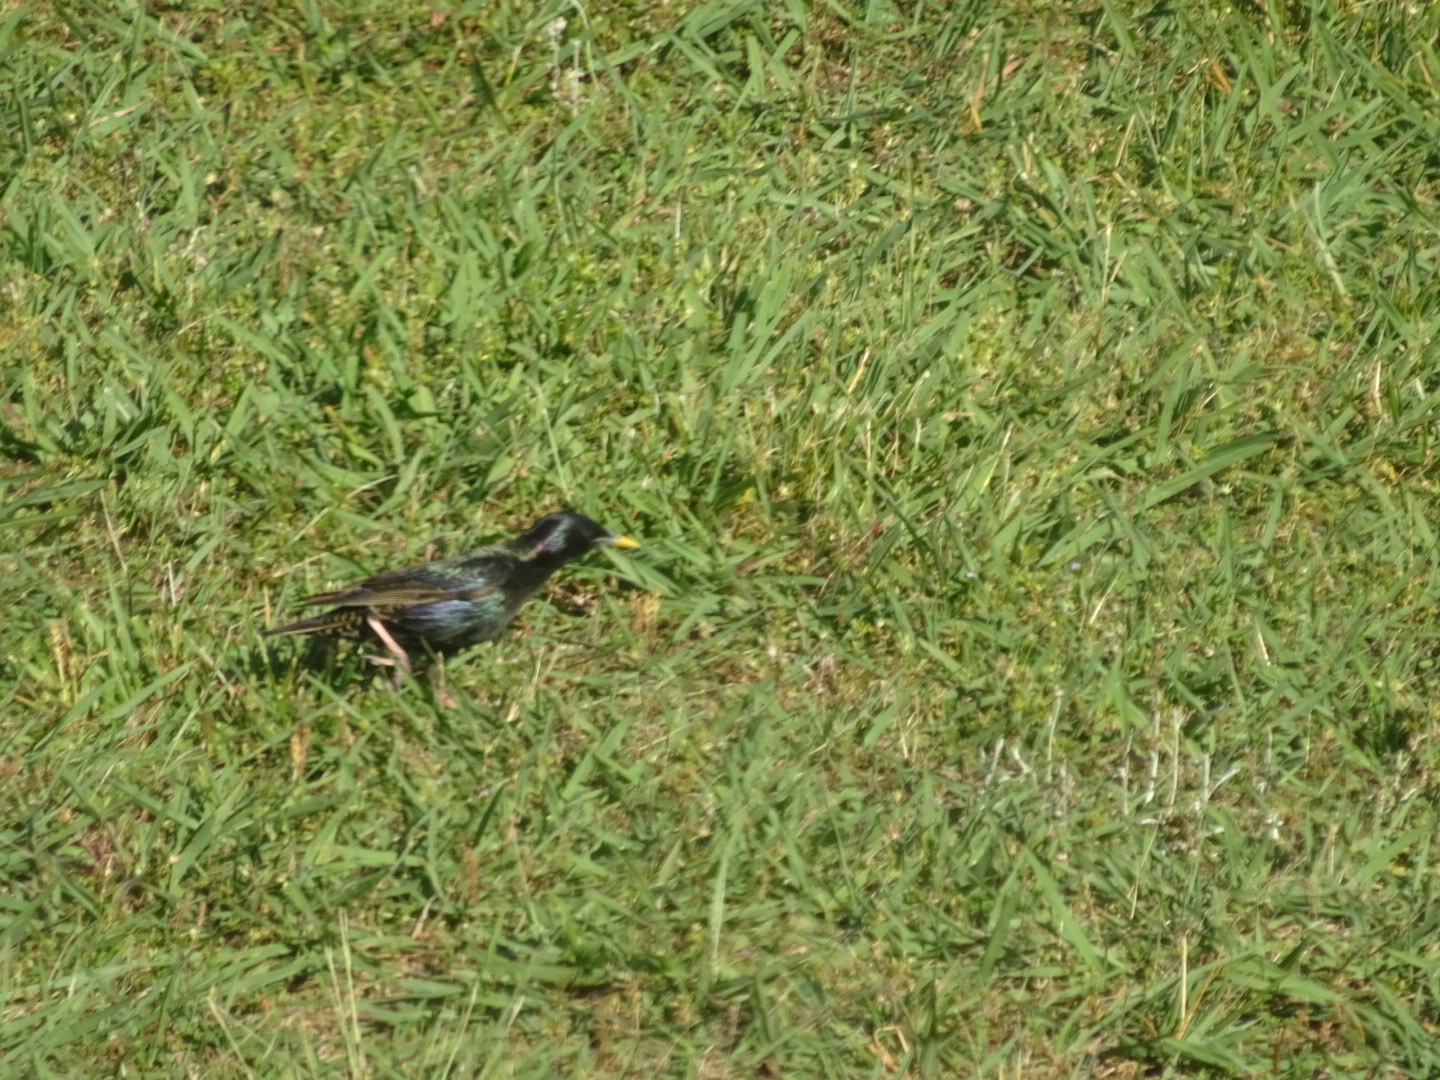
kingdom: Animalia
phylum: Chordata
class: Aves
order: Passeriformes
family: Sturnidae
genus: Sturnus
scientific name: Sturnus vulgaris
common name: Common starling
